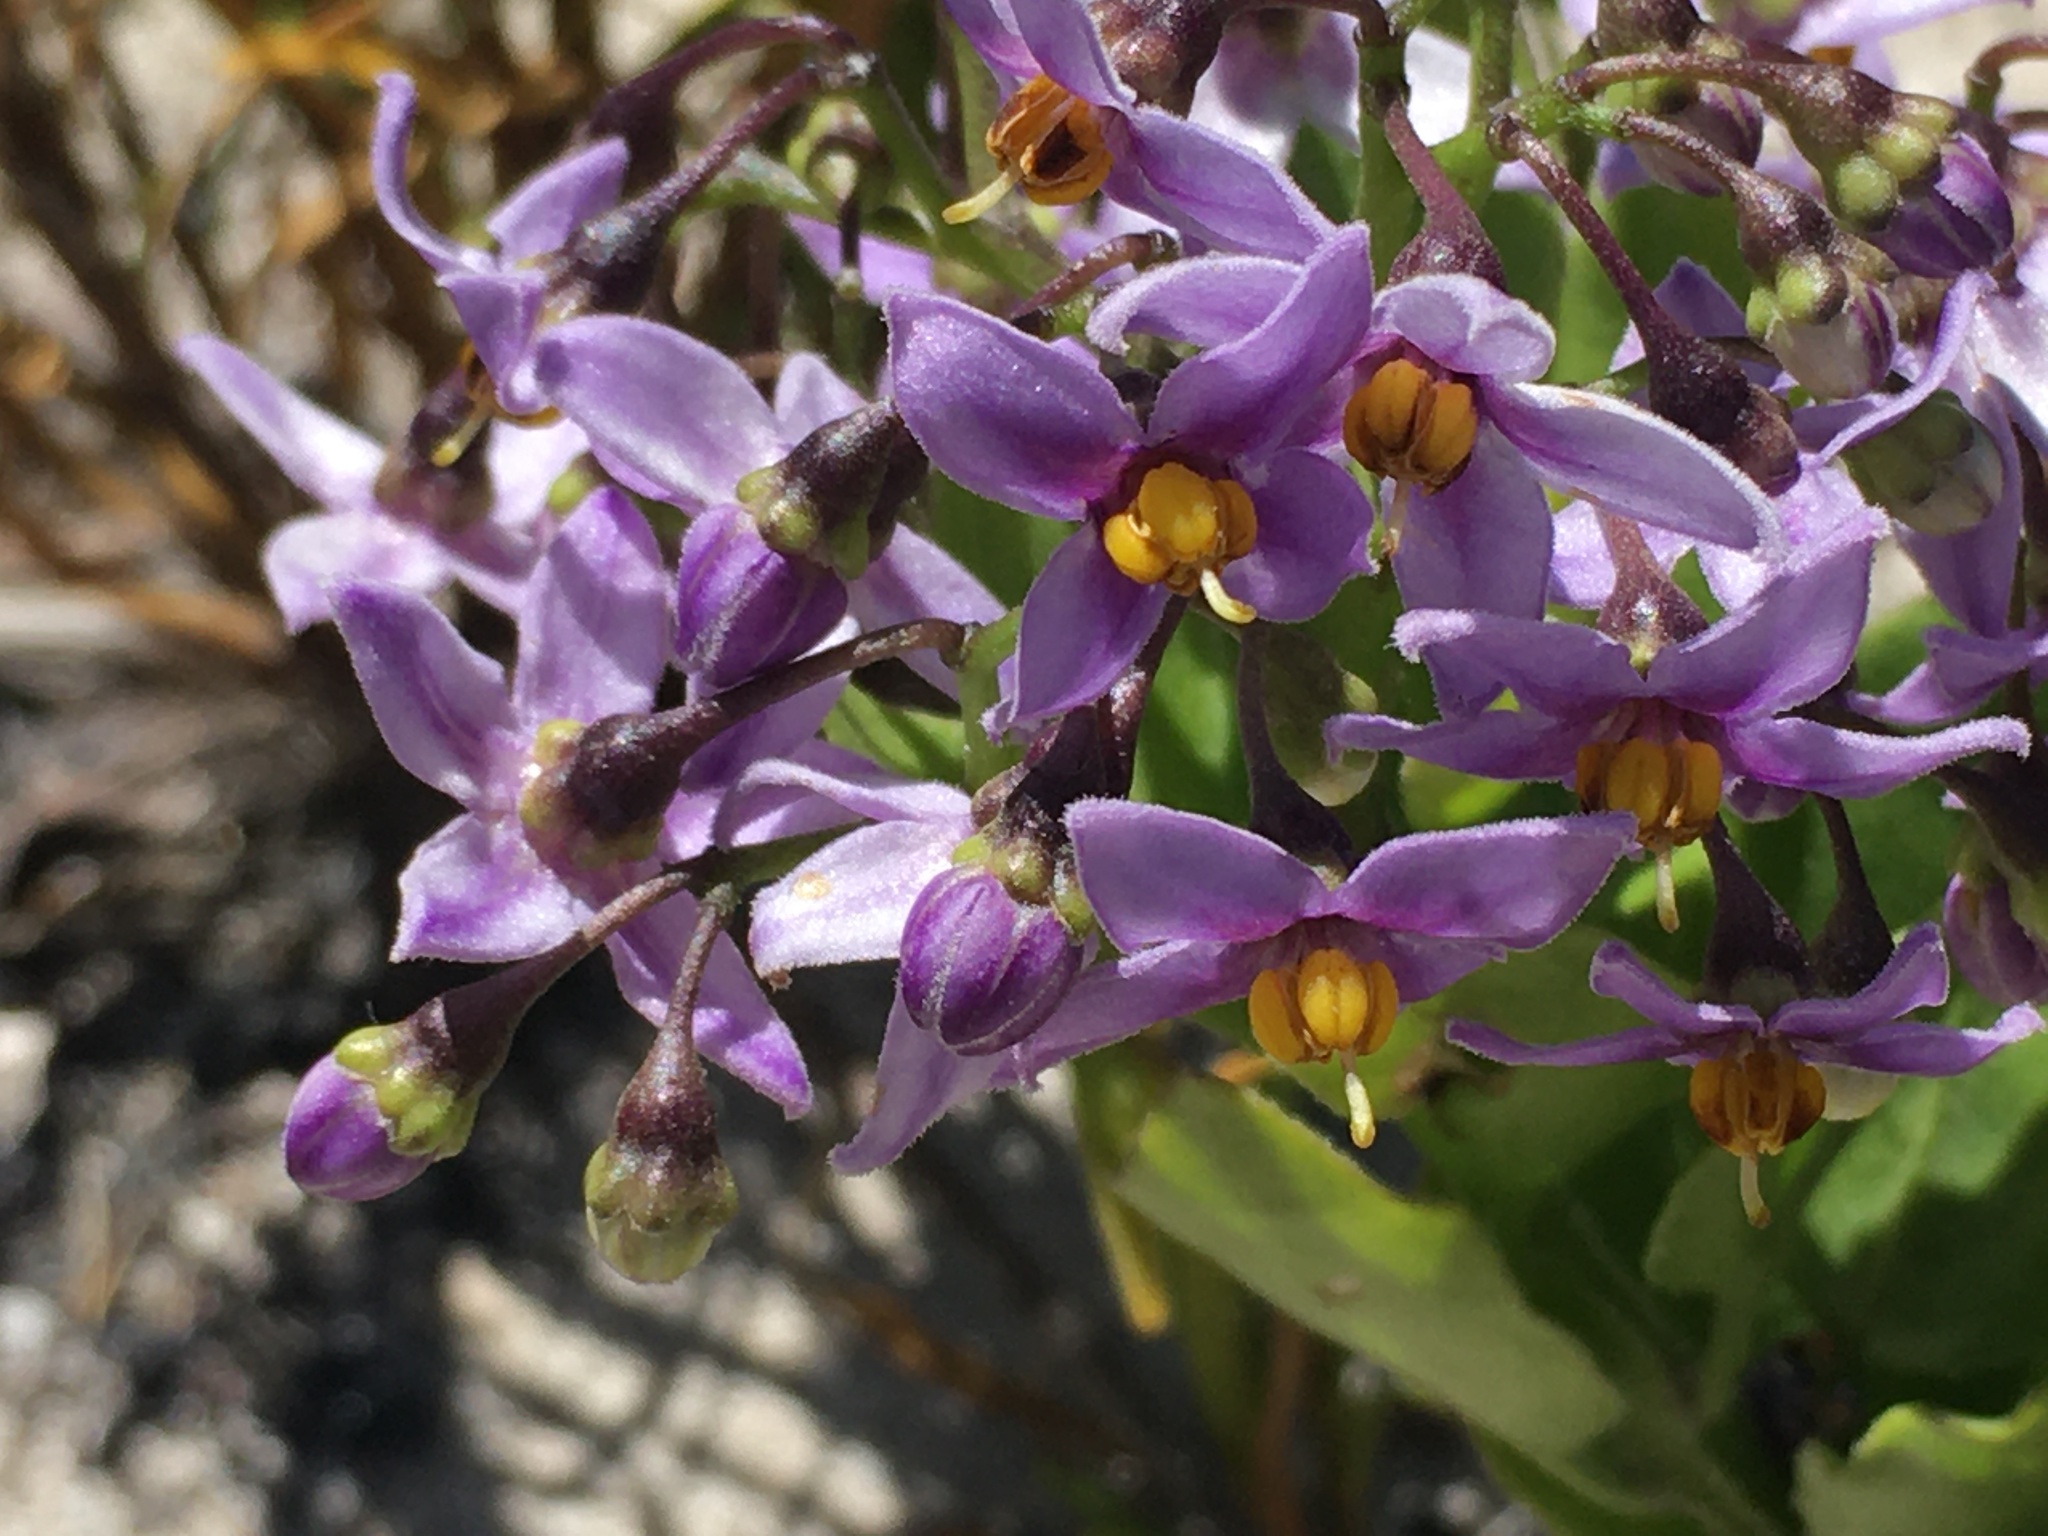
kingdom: Plantae
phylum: Tracheophyta
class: Magnoliopsida
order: Solanales
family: Solanaceae
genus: Solanum
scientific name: Solanum africanum
